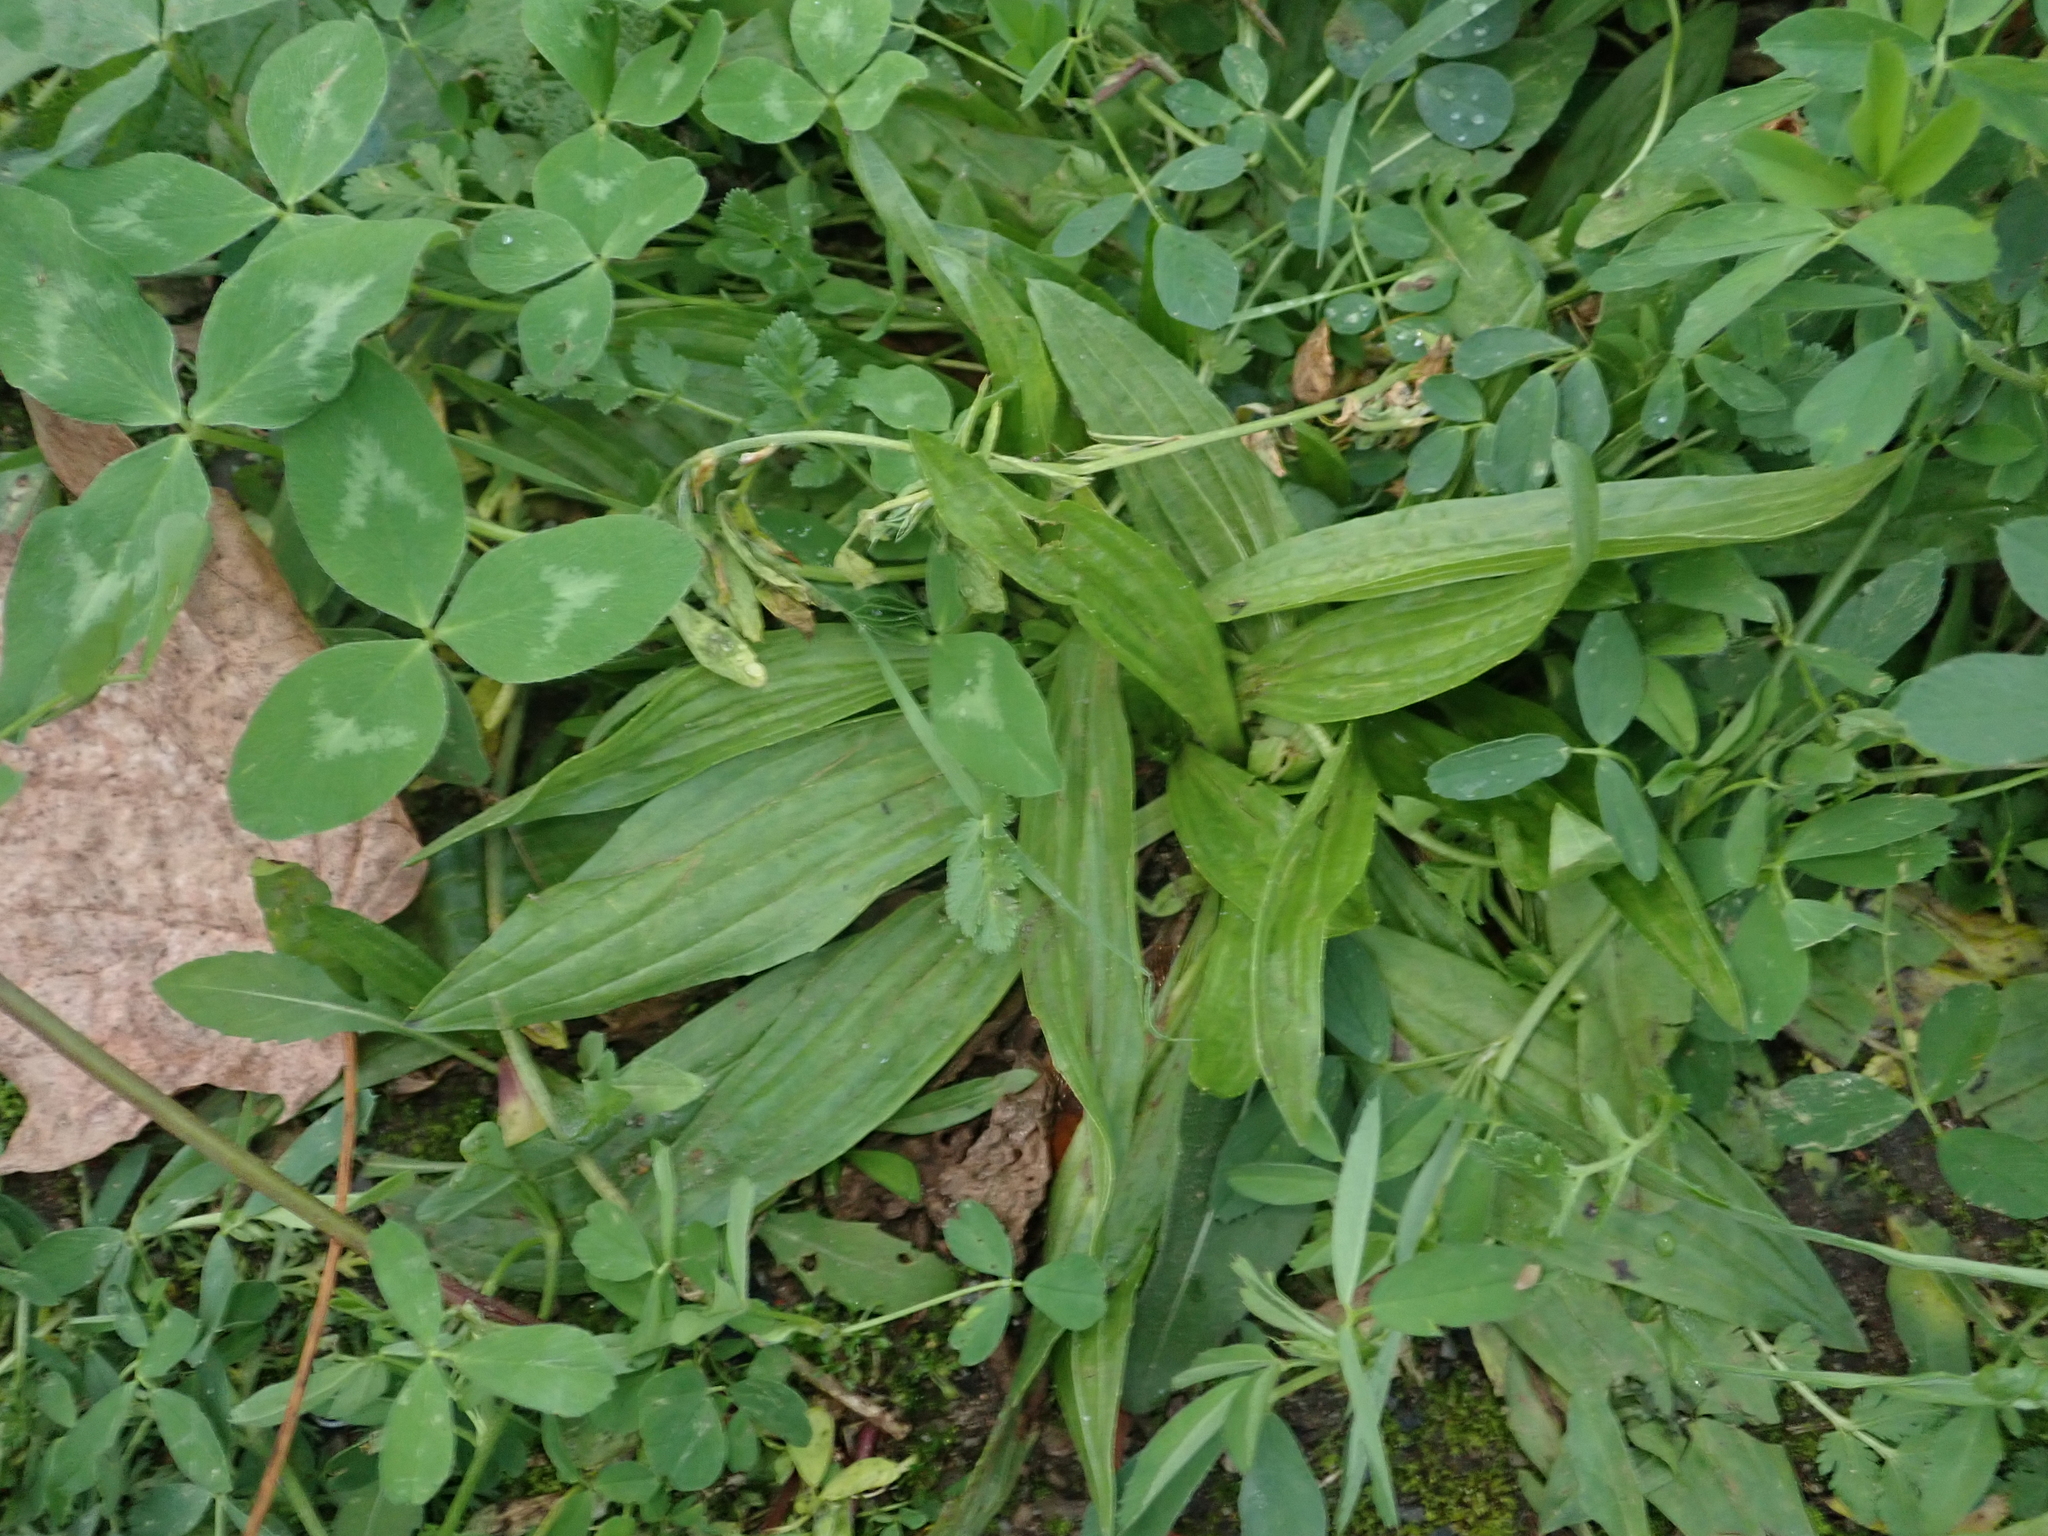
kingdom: Plantae
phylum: Tracheophyta
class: Magnoliopsida
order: Lamiales
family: Plantaginaceae
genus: Plantago
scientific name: Plantago lanceolata
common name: Ribwort plantain
